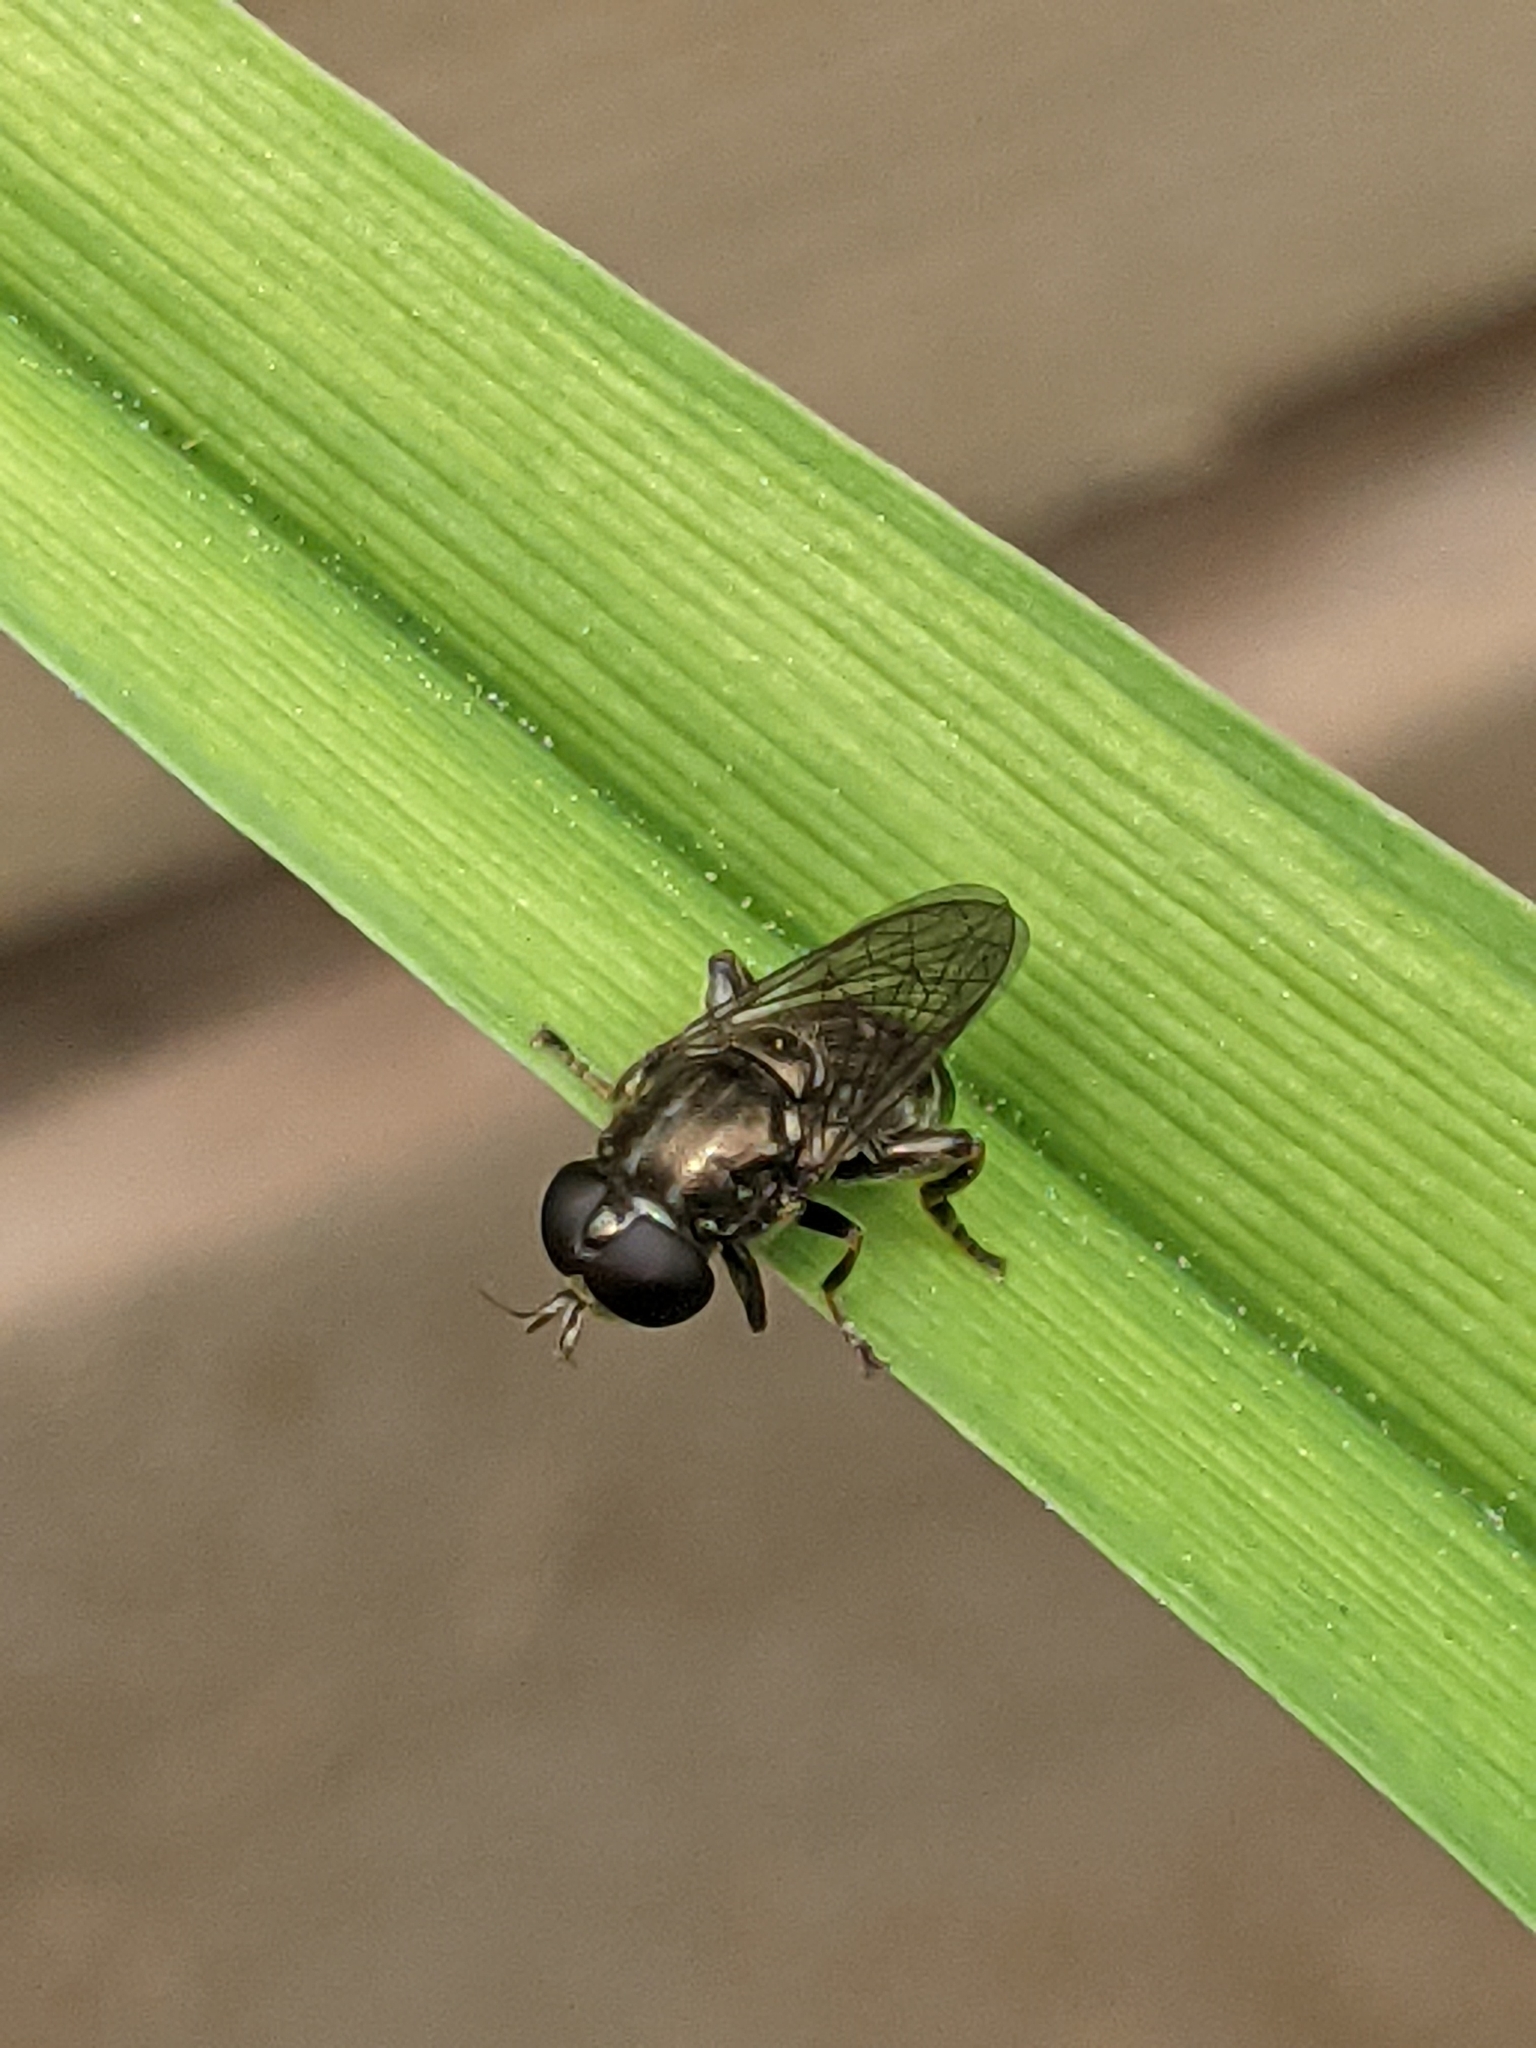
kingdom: Animalia
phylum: Arthropoda
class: Insecta
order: Diptera
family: Syrphidae
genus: Eumerus
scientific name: Eumerus
